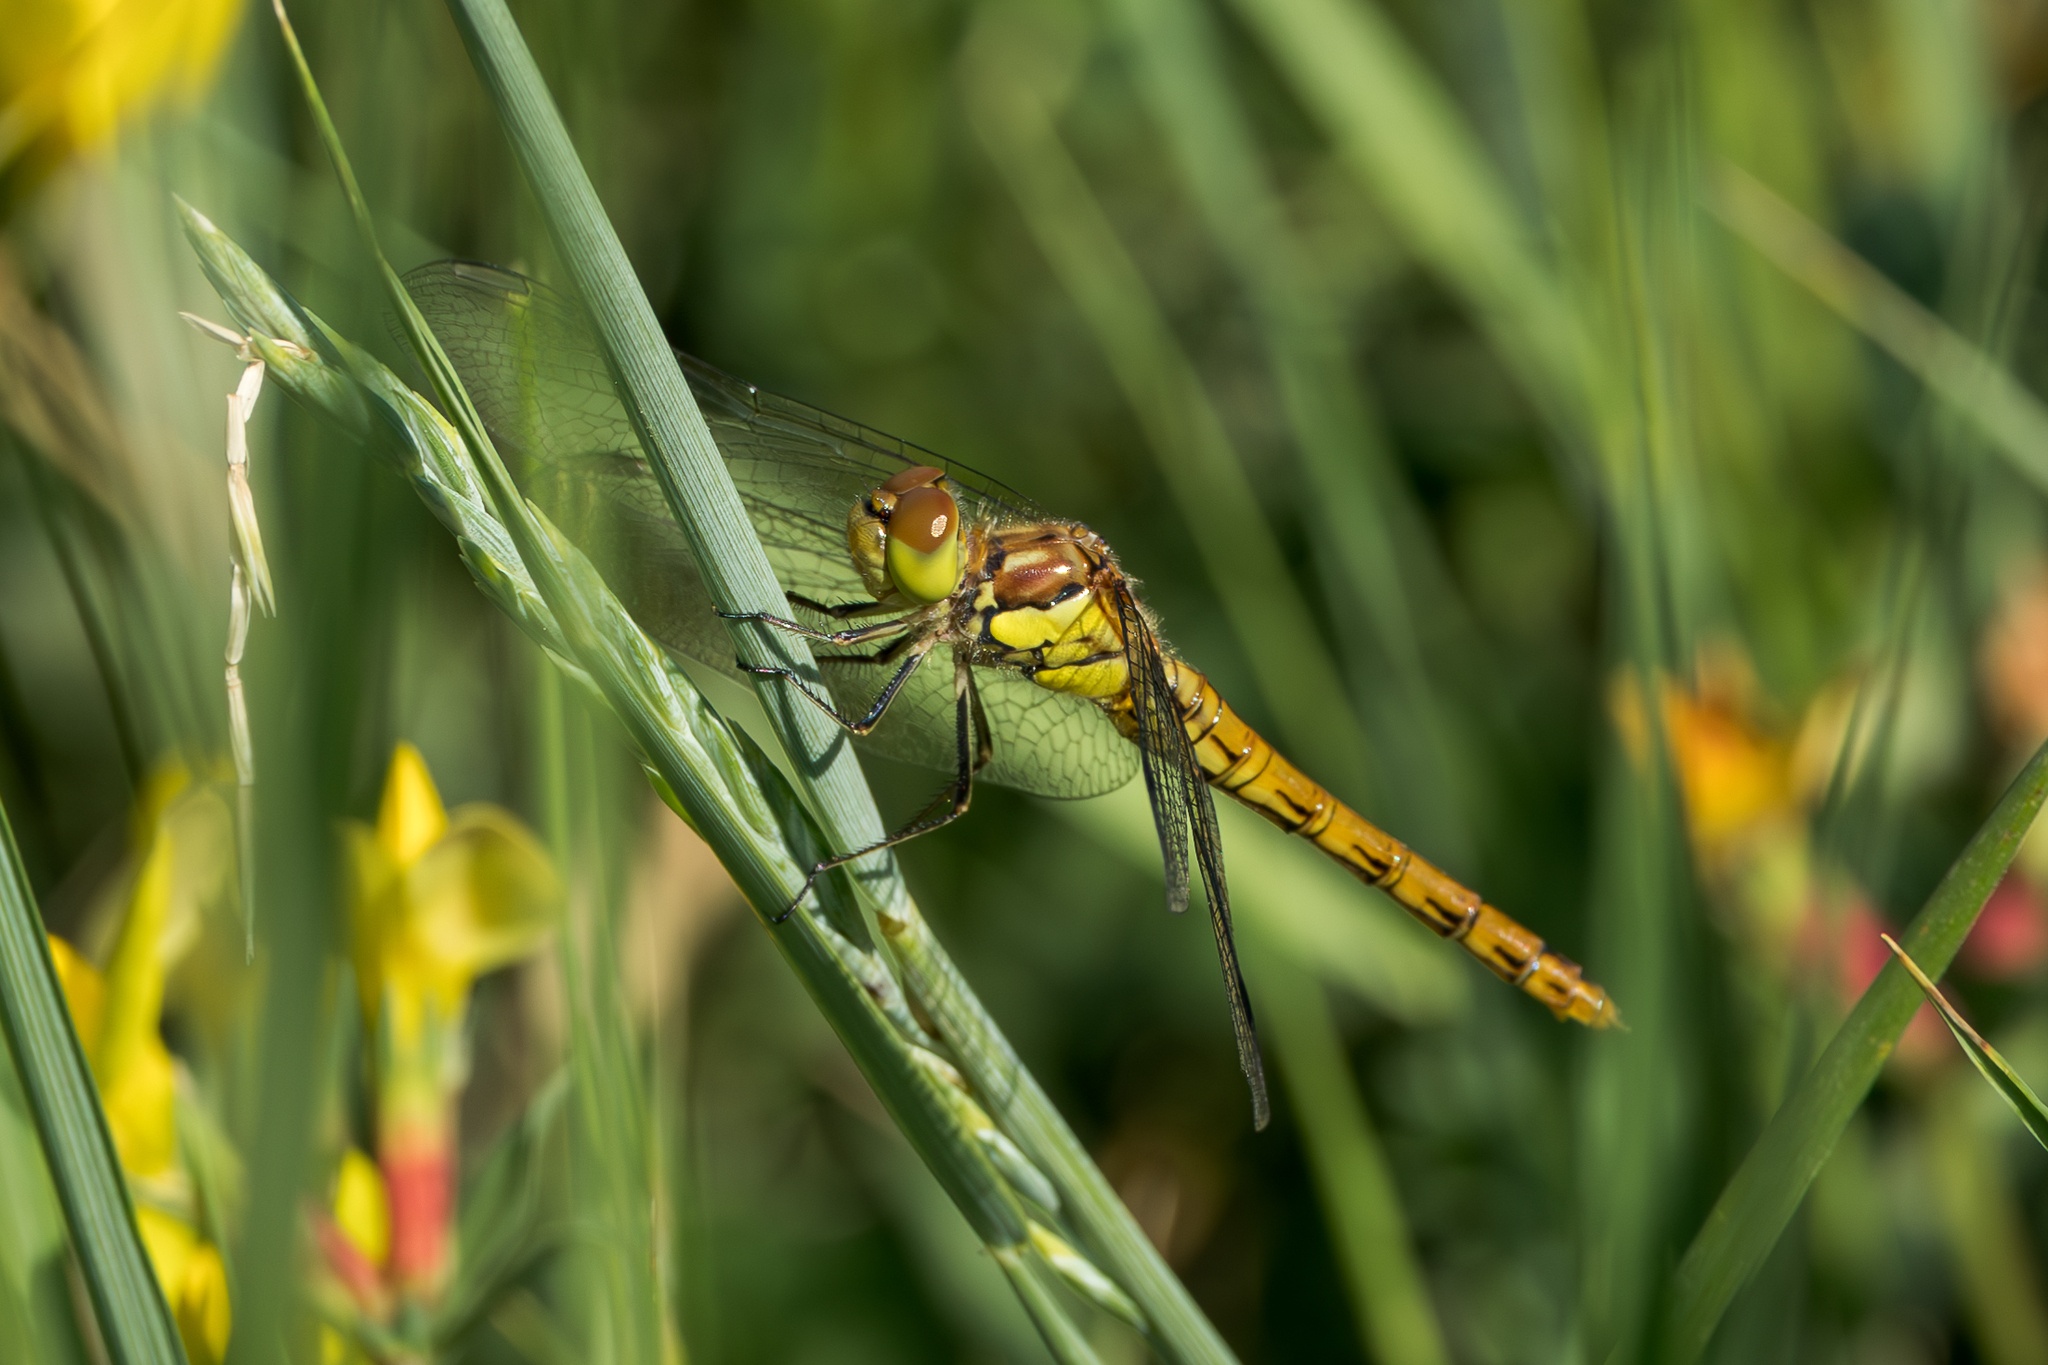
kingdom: Animalia
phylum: Arthropoda
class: Insecta
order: Odonata
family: Libellulidae
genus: Sympetrum
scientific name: Sympetrum striolatum
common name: Common darter
